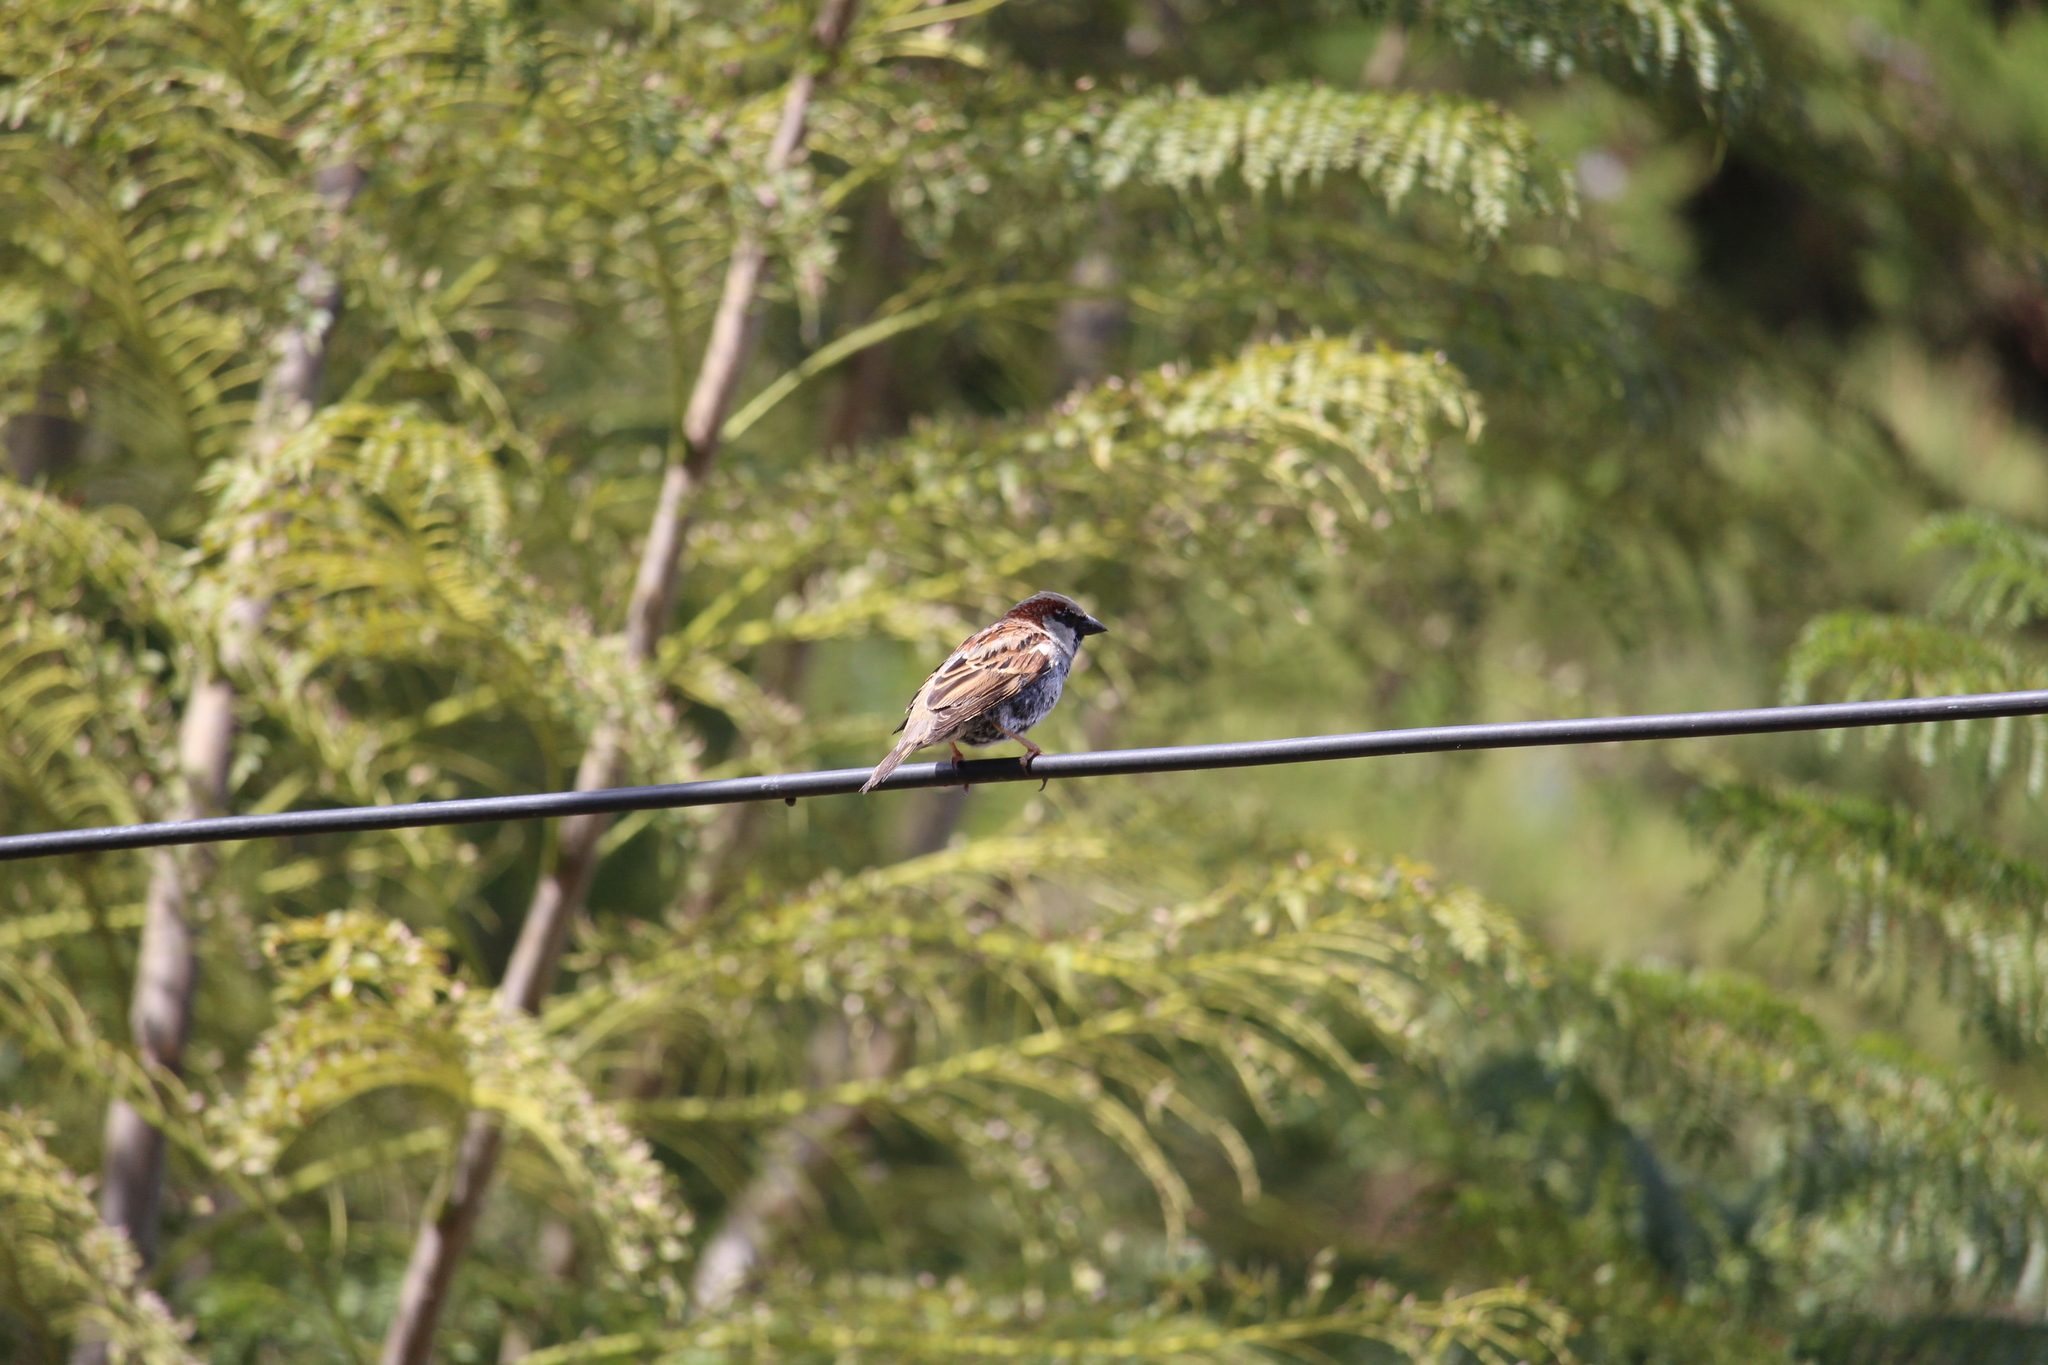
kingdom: Animalia
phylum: Chordata
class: Aves
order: Passeriformes
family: Passeridae
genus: Passer
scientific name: Passer domesticus
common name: House sparrow
